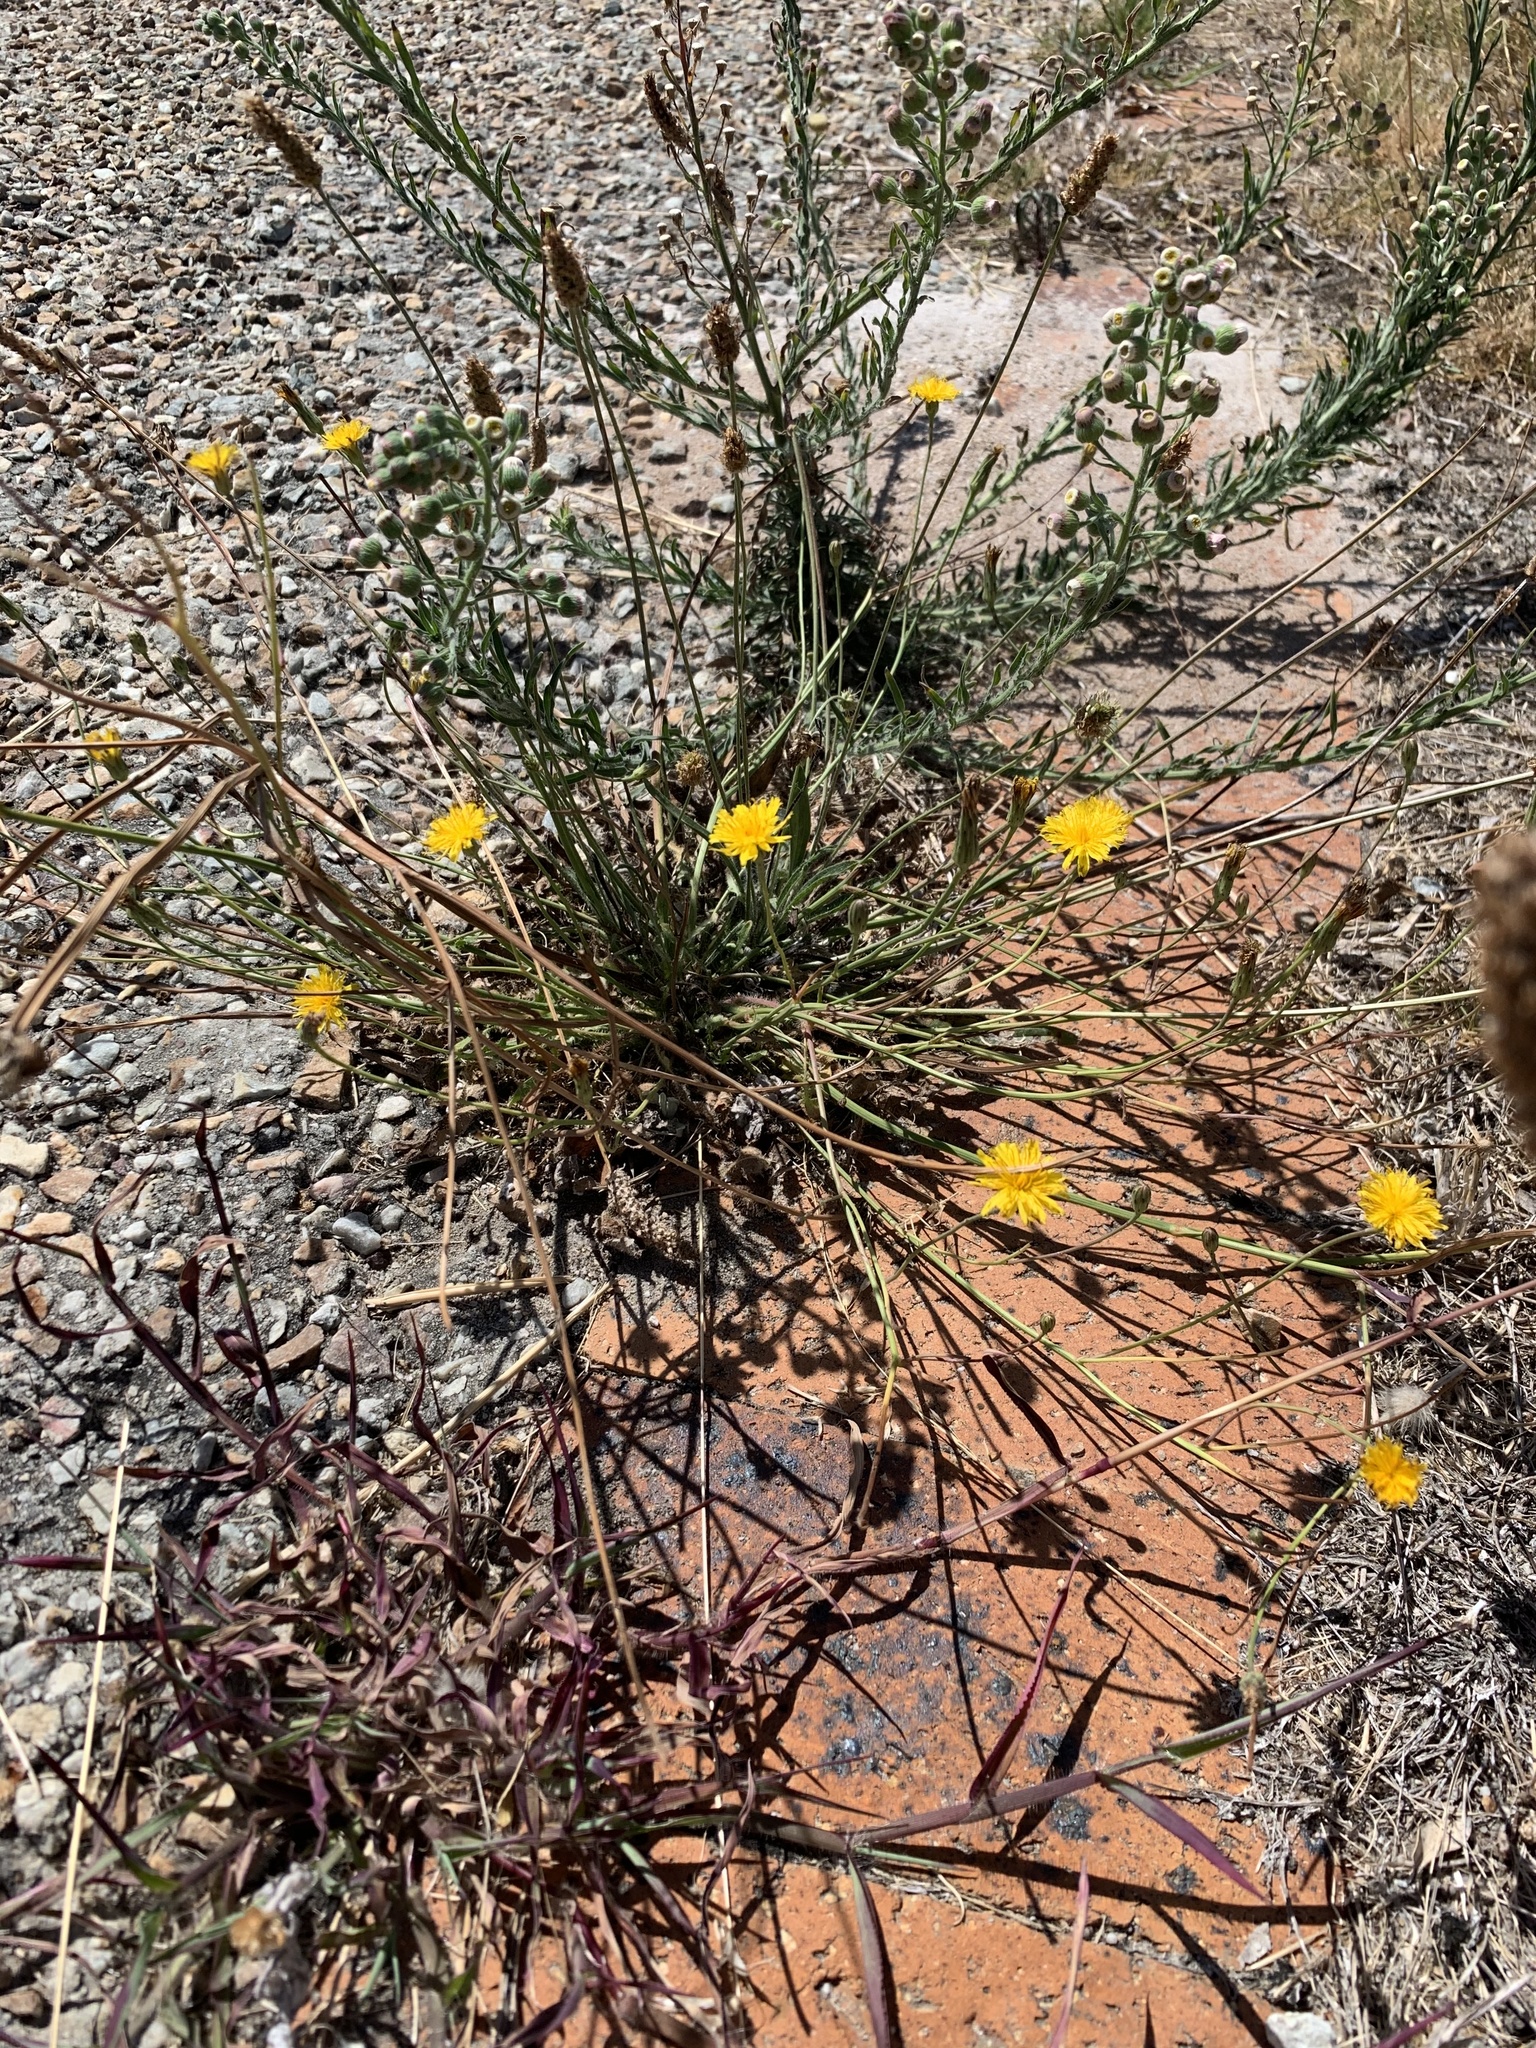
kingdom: Plantae
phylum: Tracheophyta
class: Magnoliopsida
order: Asterales
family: Asteraceae
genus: Hypochaeris
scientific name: Hypochaeris radicata
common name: Flatweed
